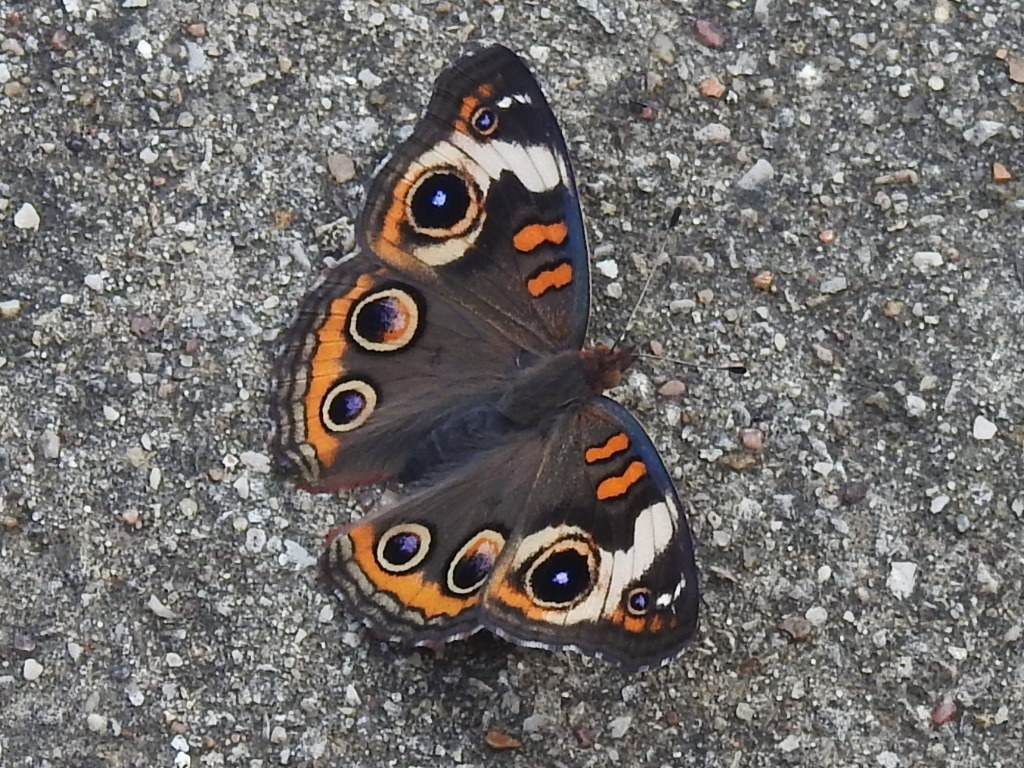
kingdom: Animalia
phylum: Arthropoda
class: Insecta
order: Lepidoptera
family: Nymphalidae
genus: Junonia
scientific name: Junonia coenia
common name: Common buckeye
